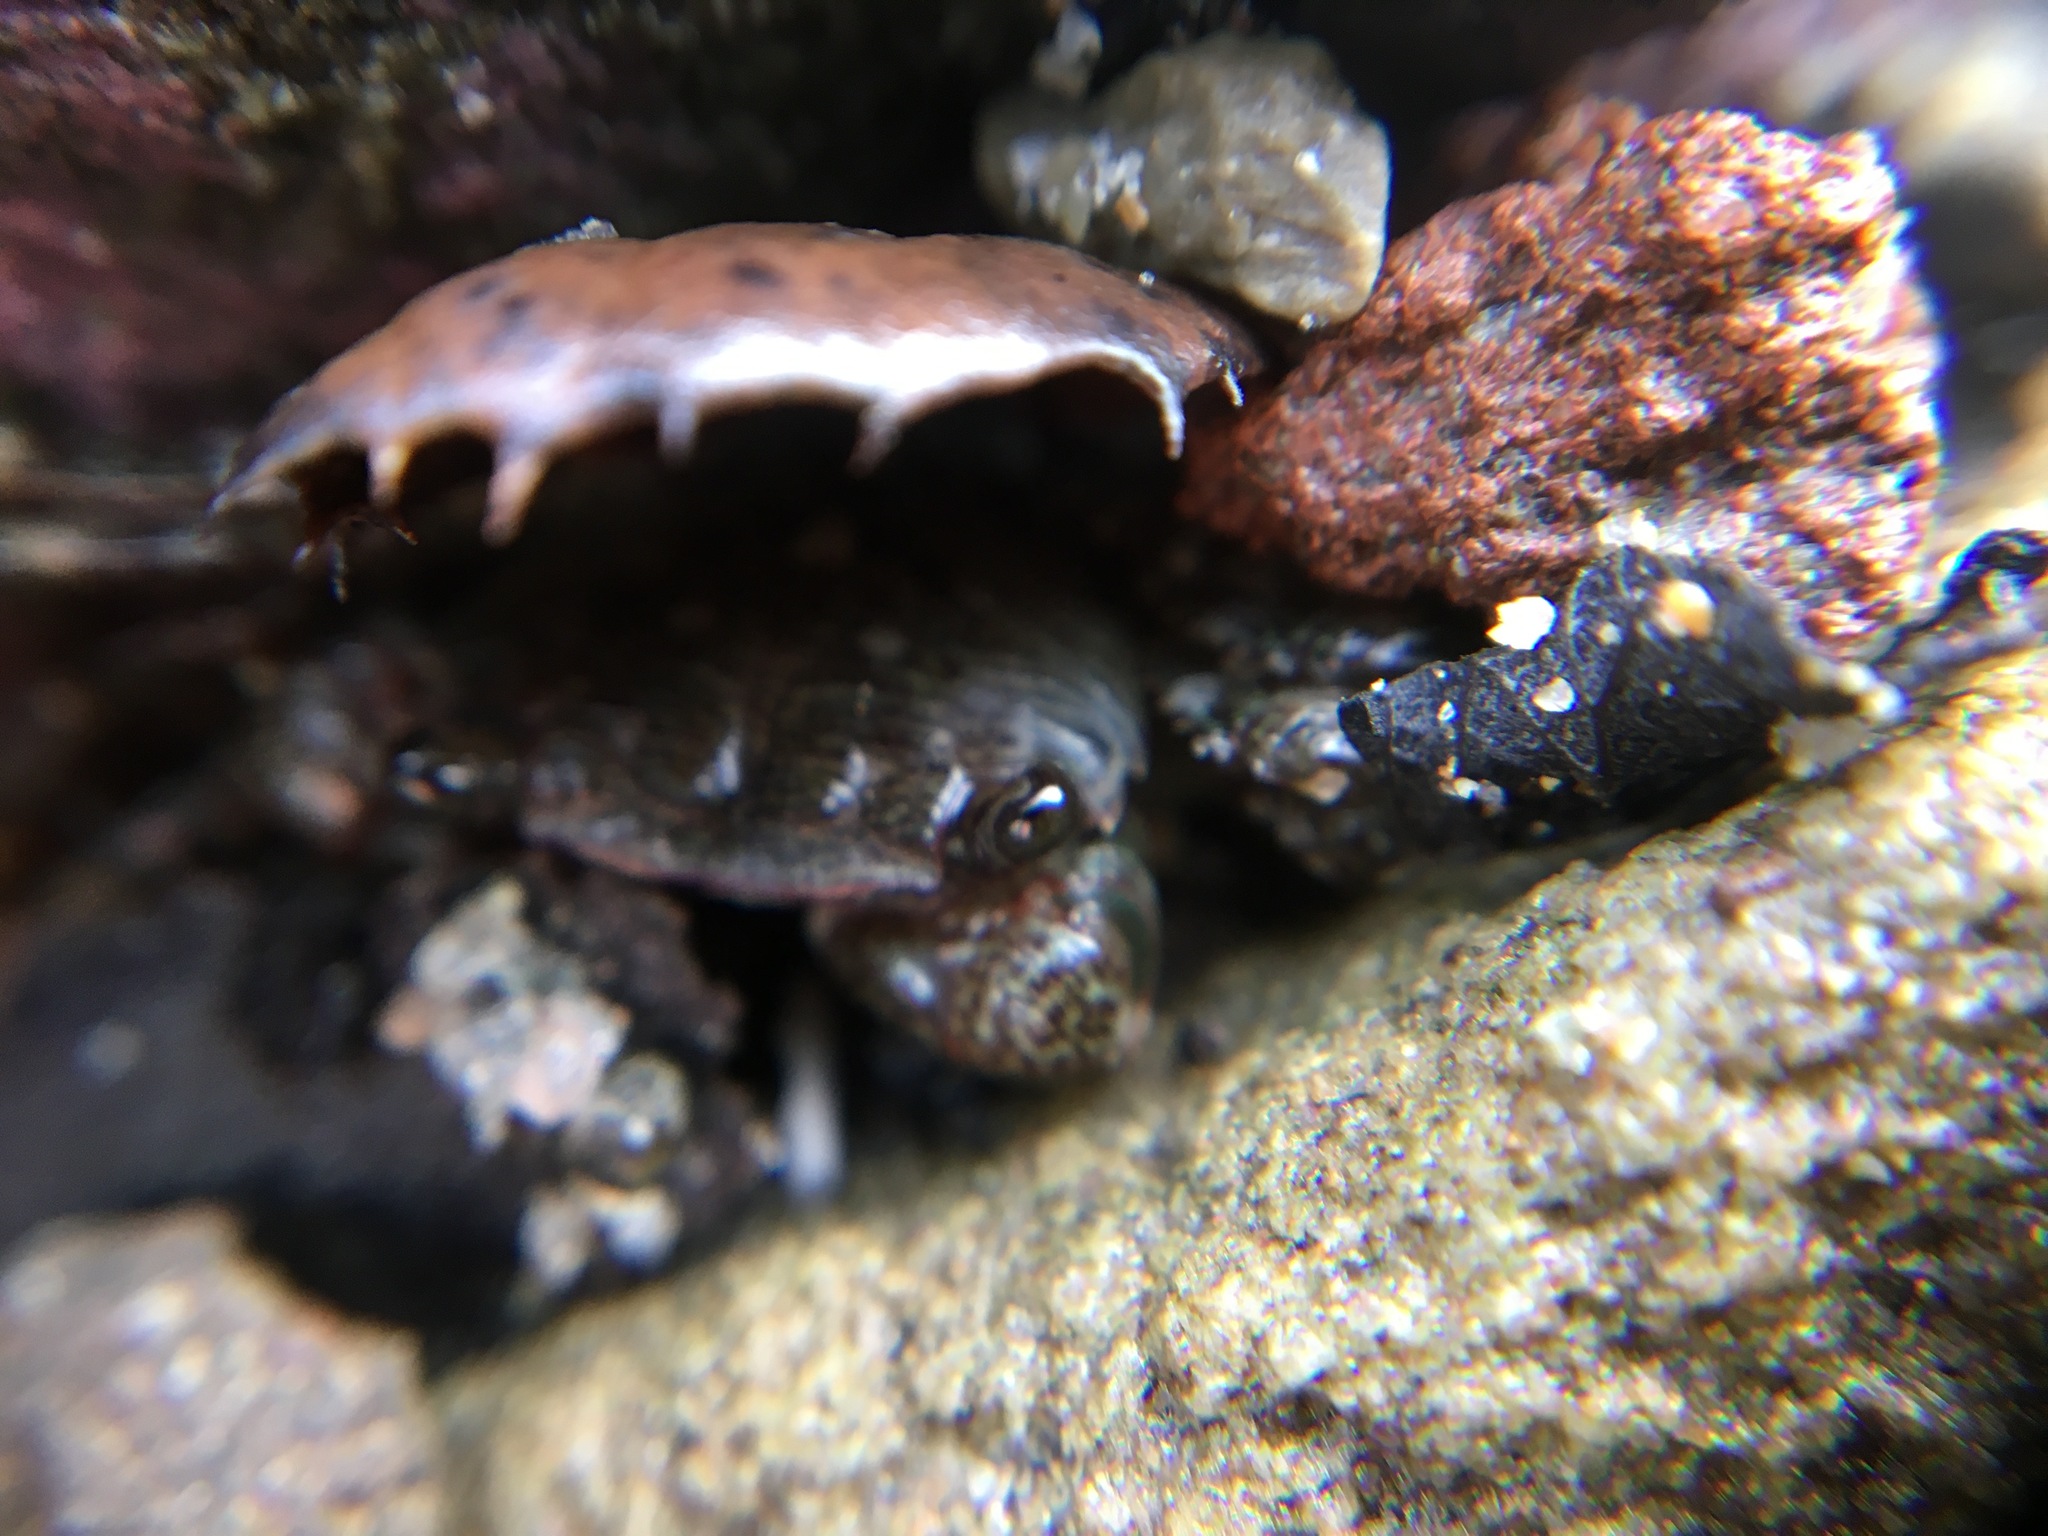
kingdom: Animalia
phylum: Arthropoda
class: Malacostraca
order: Decapoda
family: Grapsidae
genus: Pachygrapsus
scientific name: Pachygrapsus crassipes
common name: Striped shore crab
